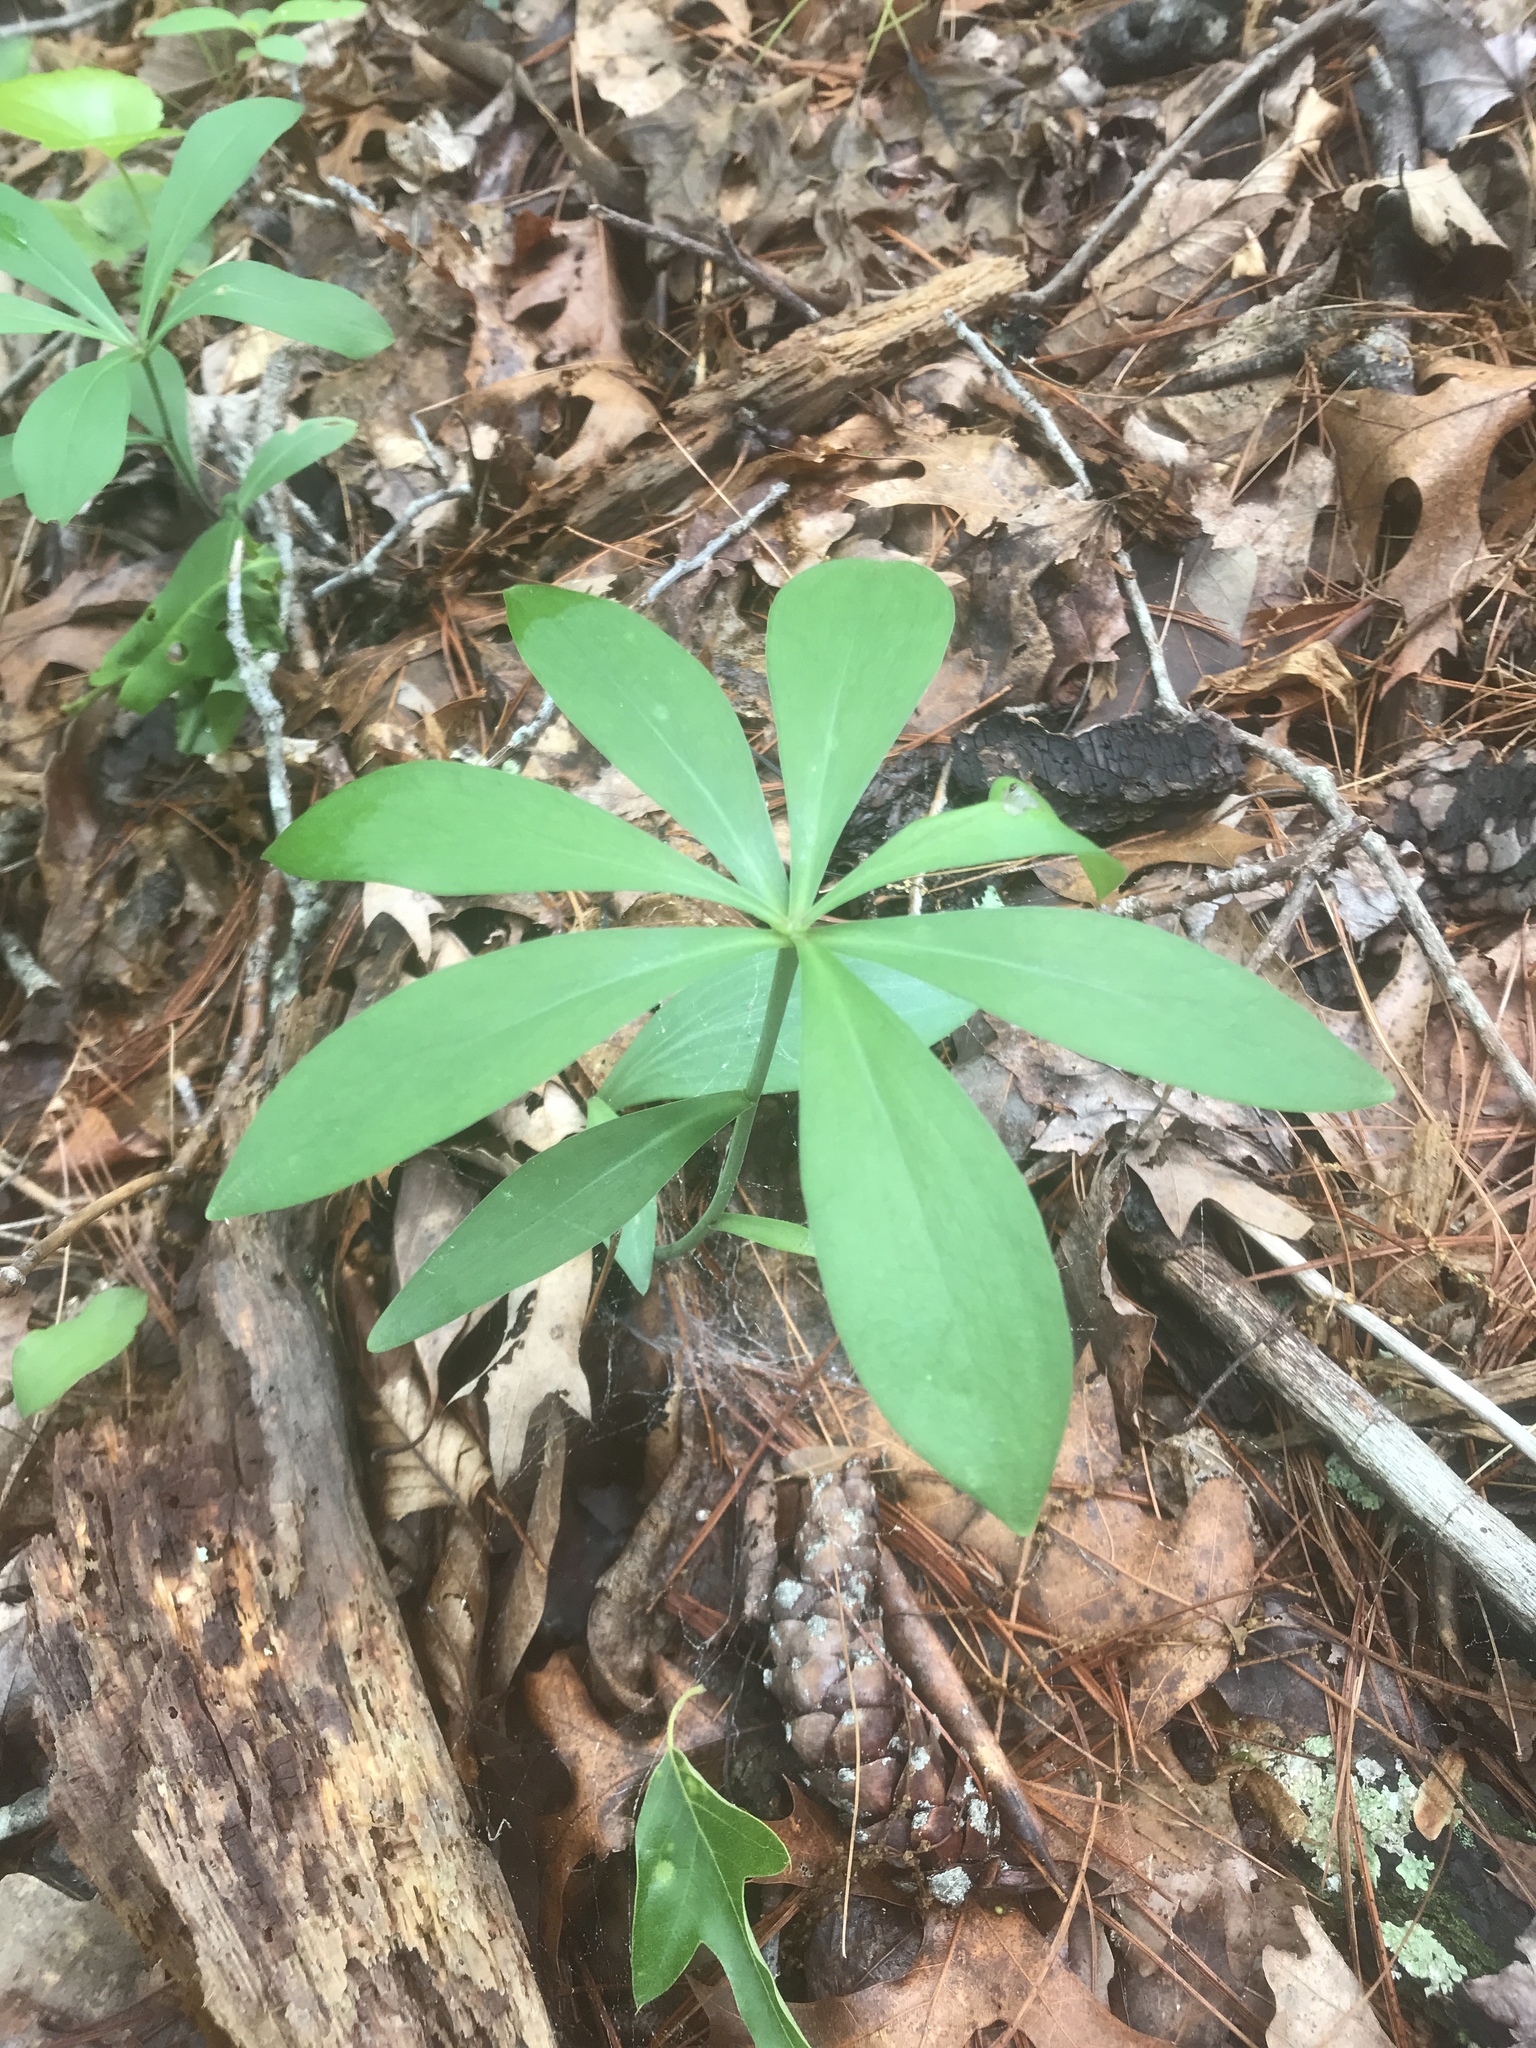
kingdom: Plantae
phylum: Tracheophyta
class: Liliopsida
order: Liliales
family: Liliaceae
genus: Lilium
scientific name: Lilium michauxii
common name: Carolina lily
